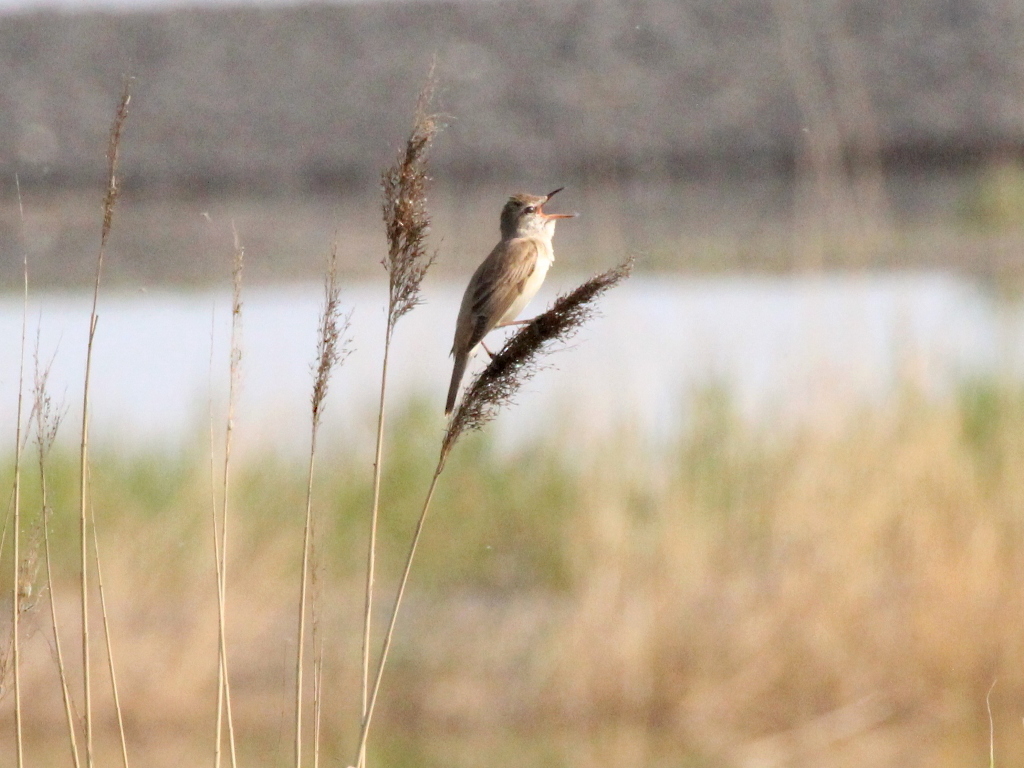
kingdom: Animalia
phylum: Chordata
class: Aves
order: Passeriformes
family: Acrocephalidae
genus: Acrocephalus
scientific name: Acrocephalus arundinaceus
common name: Great reed warbler
